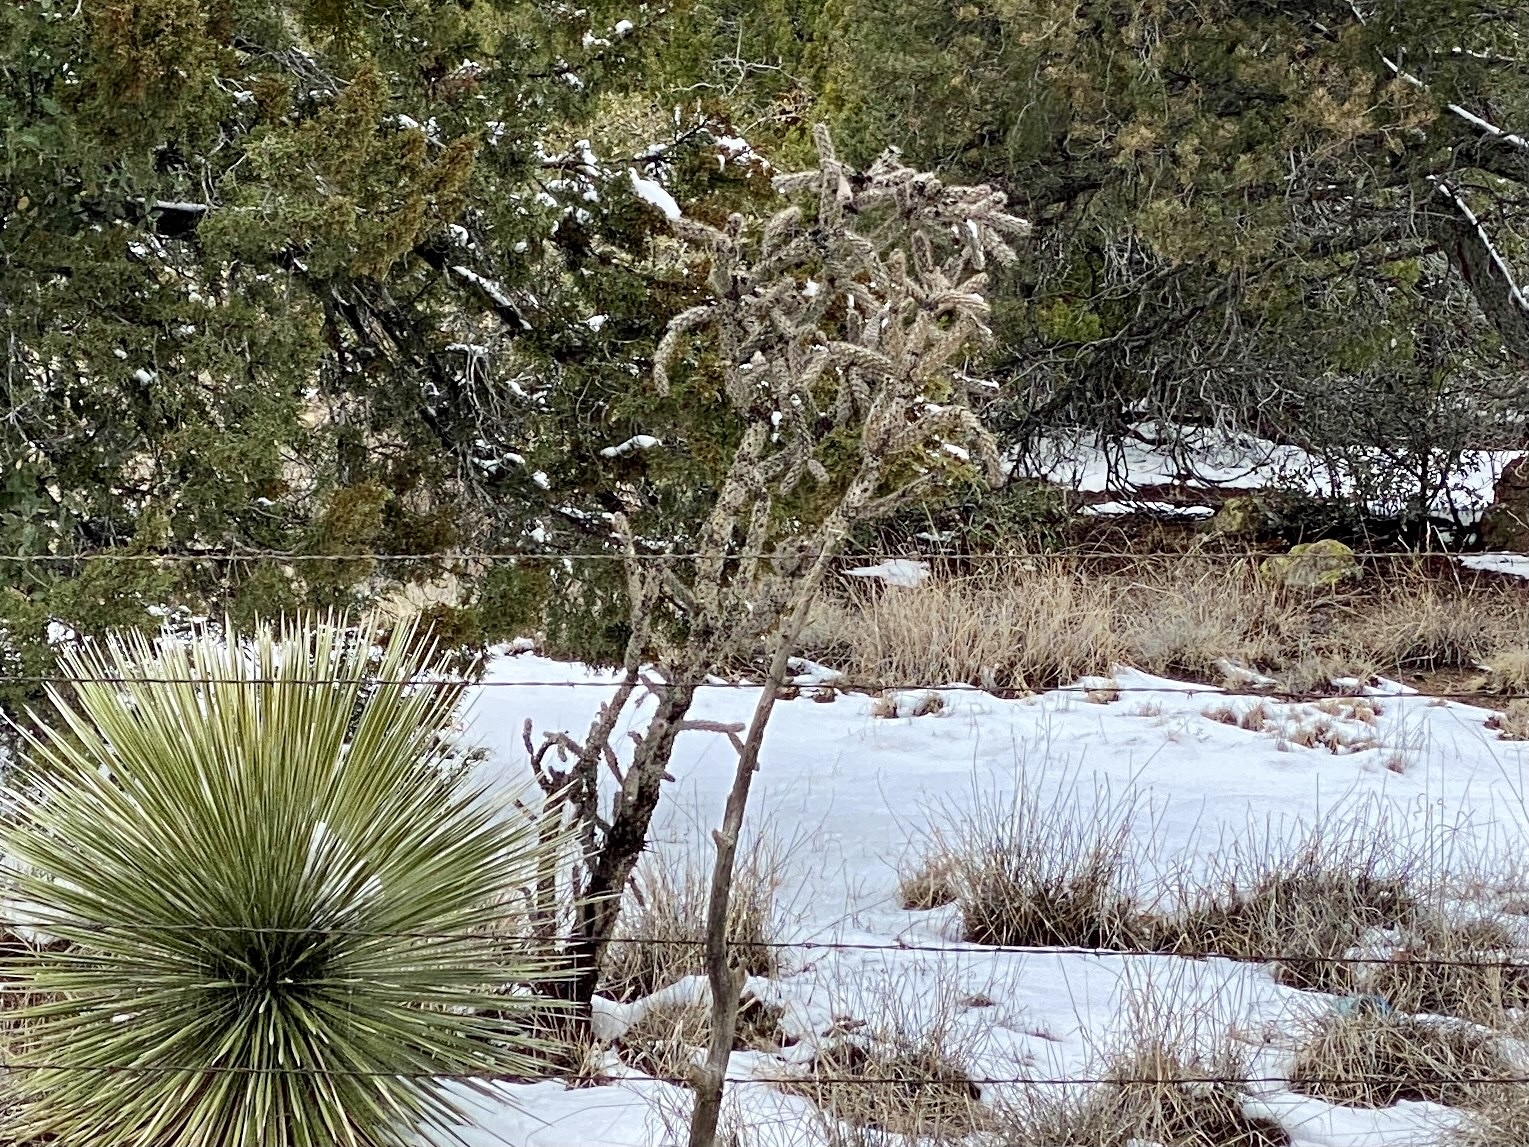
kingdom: Plantae
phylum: Tracheophyta
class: Magnoliopsida
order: Caryophyllales
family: Cactaceae
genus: Cylindropuntia
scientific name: Cylindropuntia imbricata
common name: Candelabrum cactus
